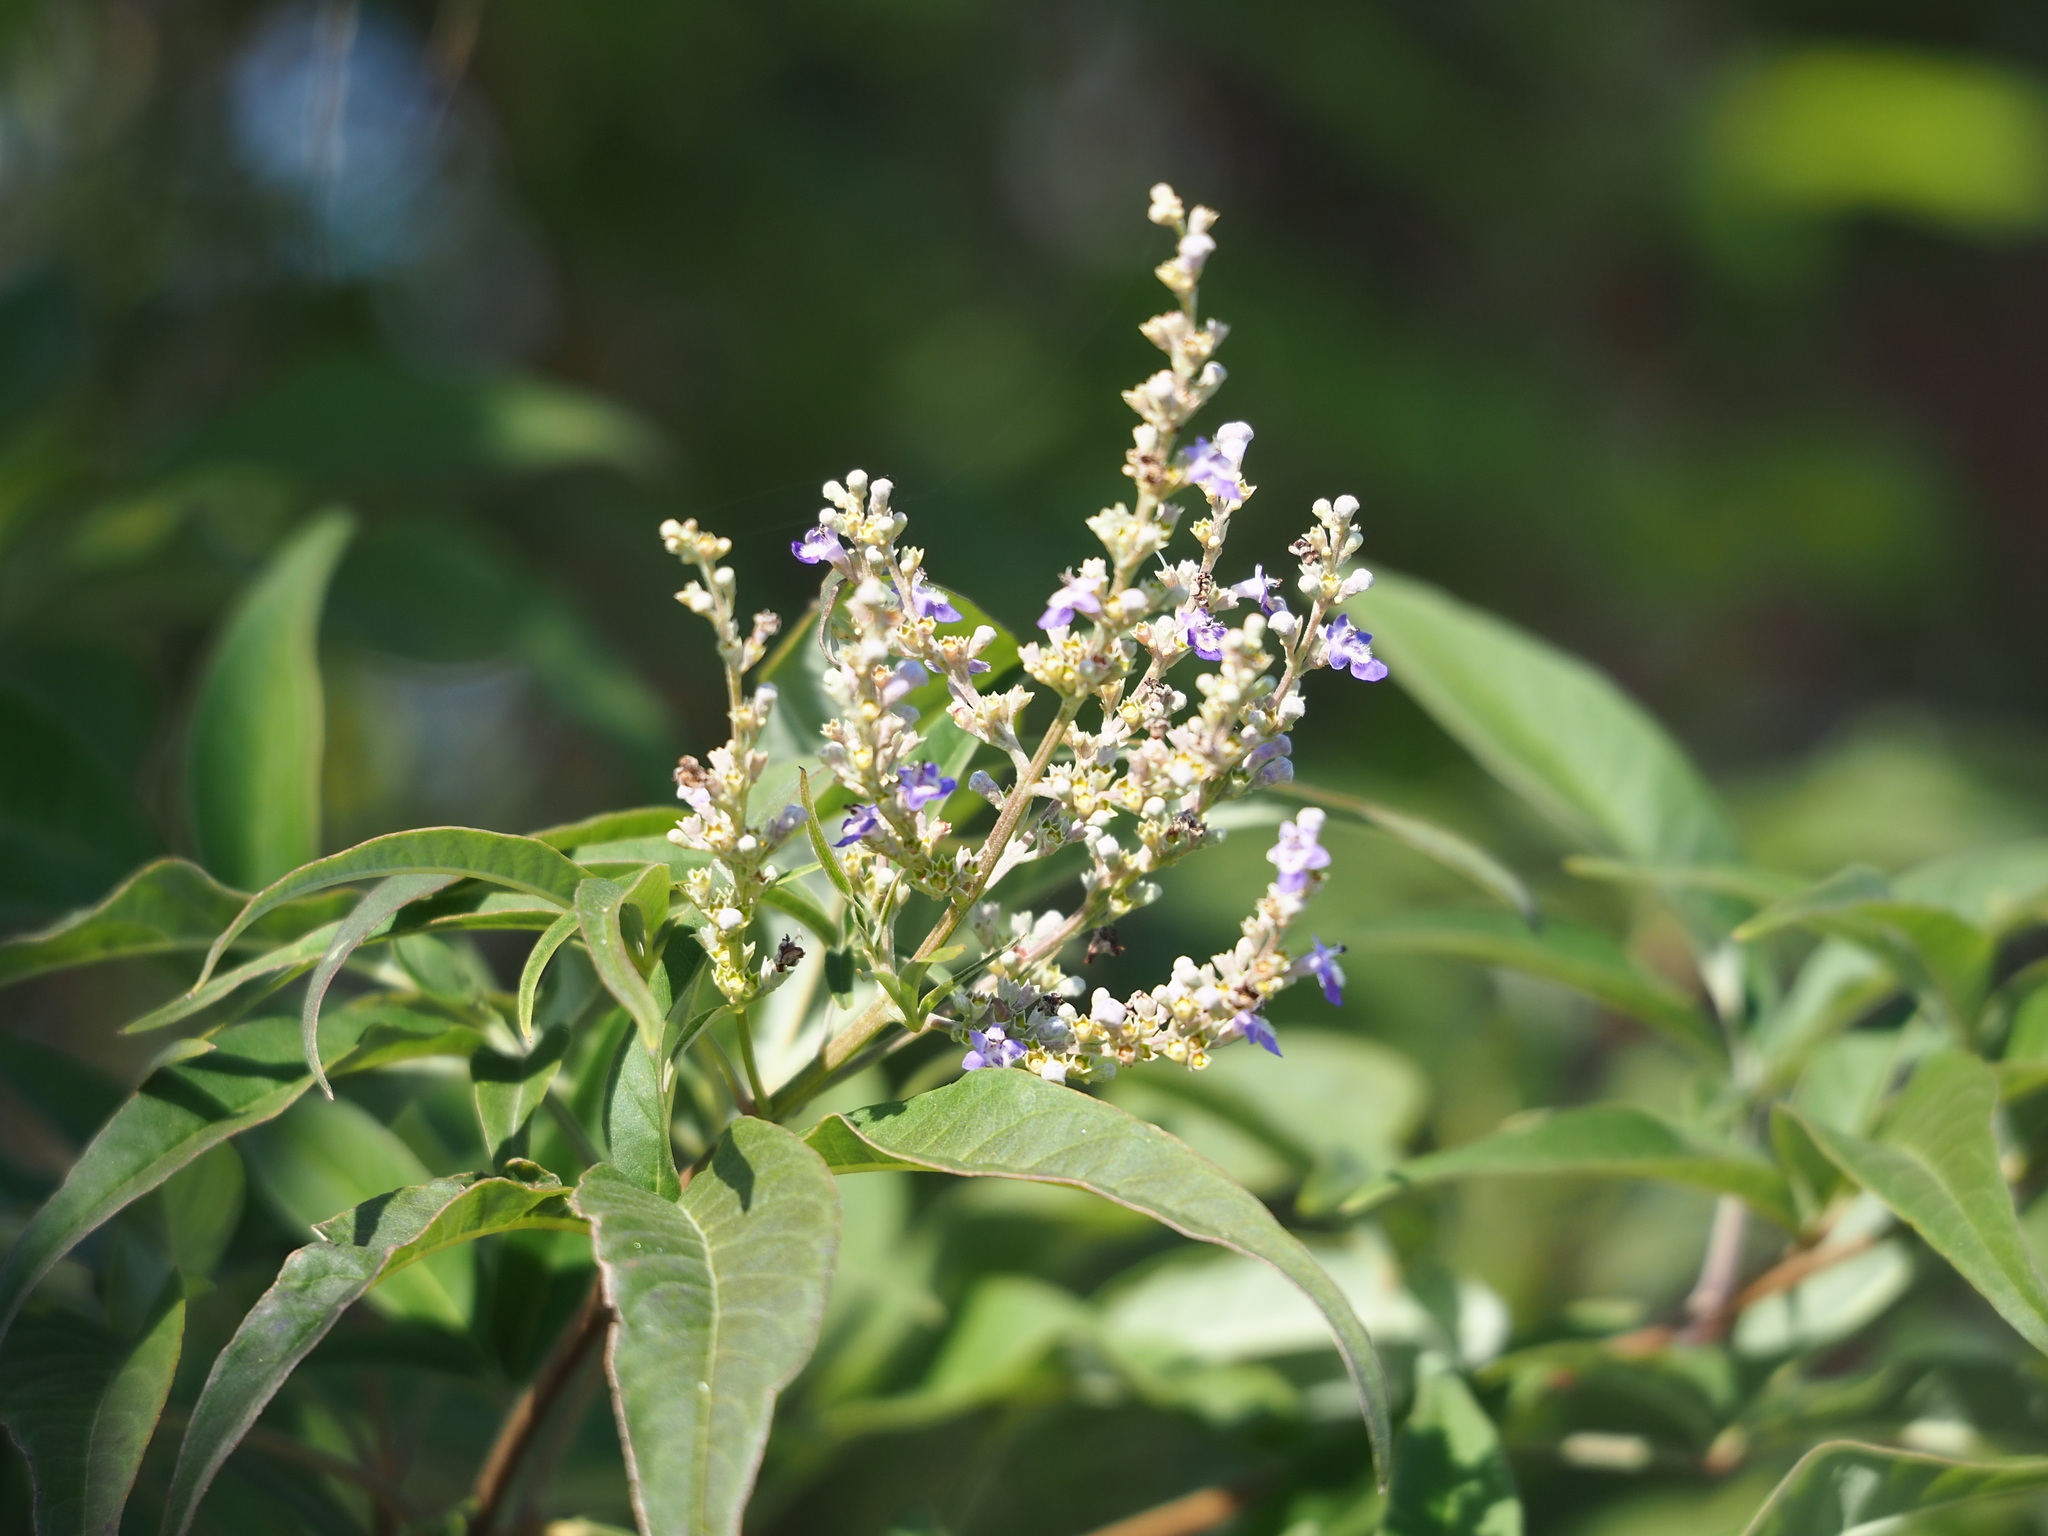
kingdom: Plantae
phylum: Tracheophyta
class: Magnoliopsida
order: Lamiales
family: Lamiaceae
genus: Vitex
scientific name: Vitex negundo
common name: Chinese chastetree
